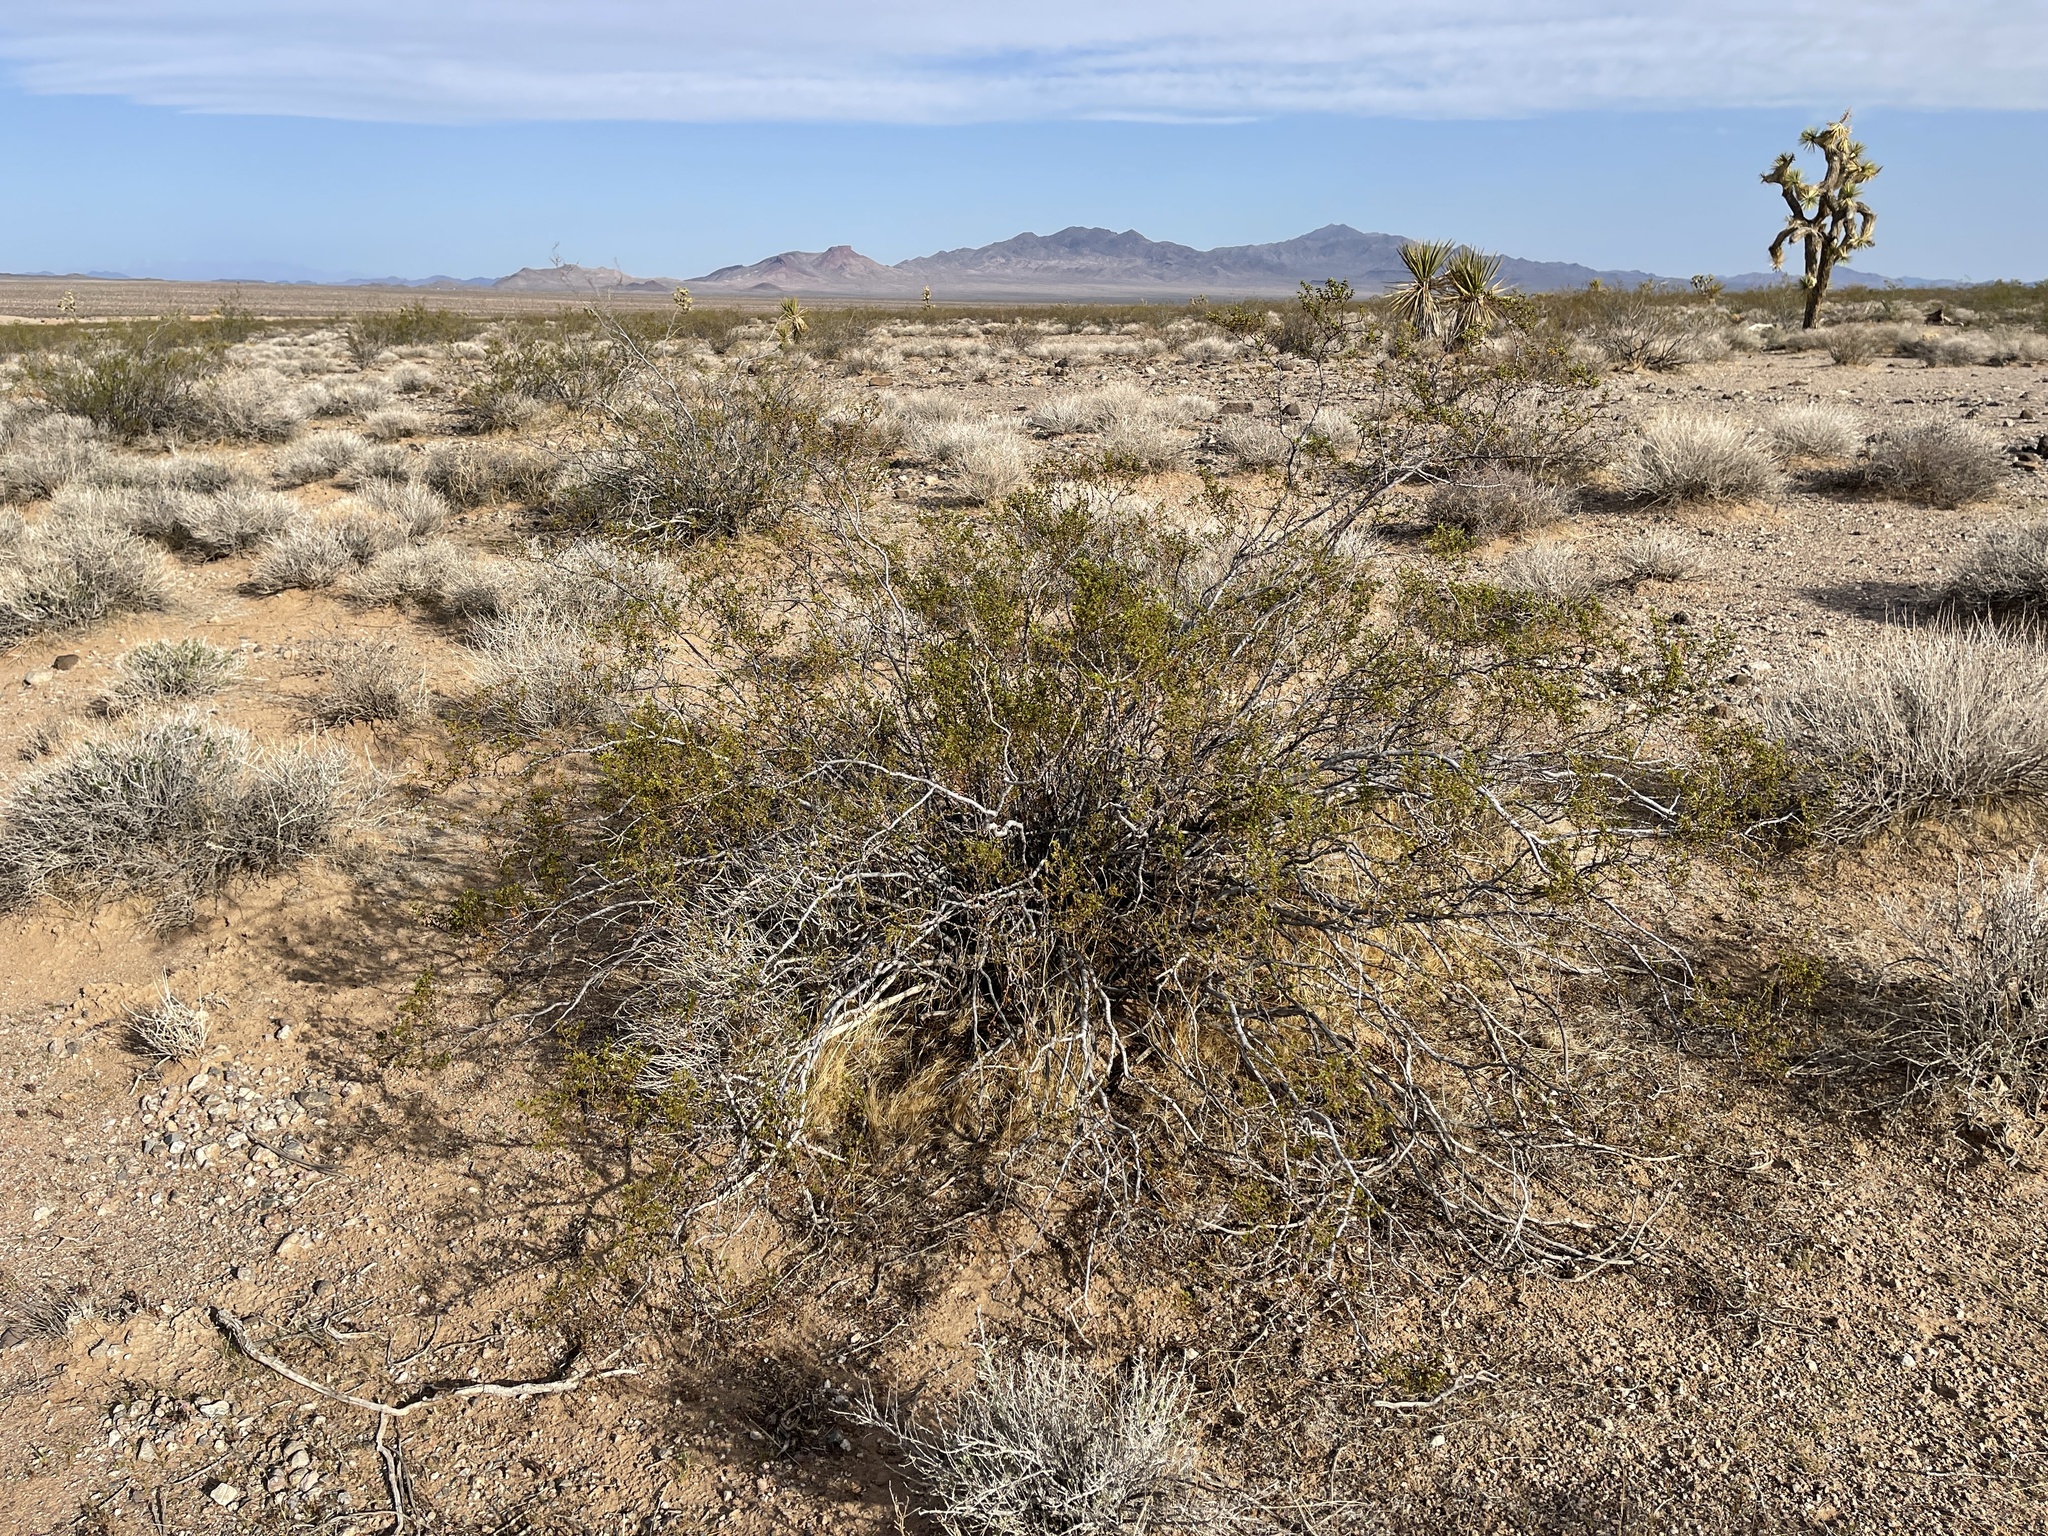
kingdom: Plantae
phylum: Tracheophyta
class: Magnoliopsida
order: Zygophyllales
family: Zygophyllaceae
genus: Larrea
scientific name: Larrea tridentata
